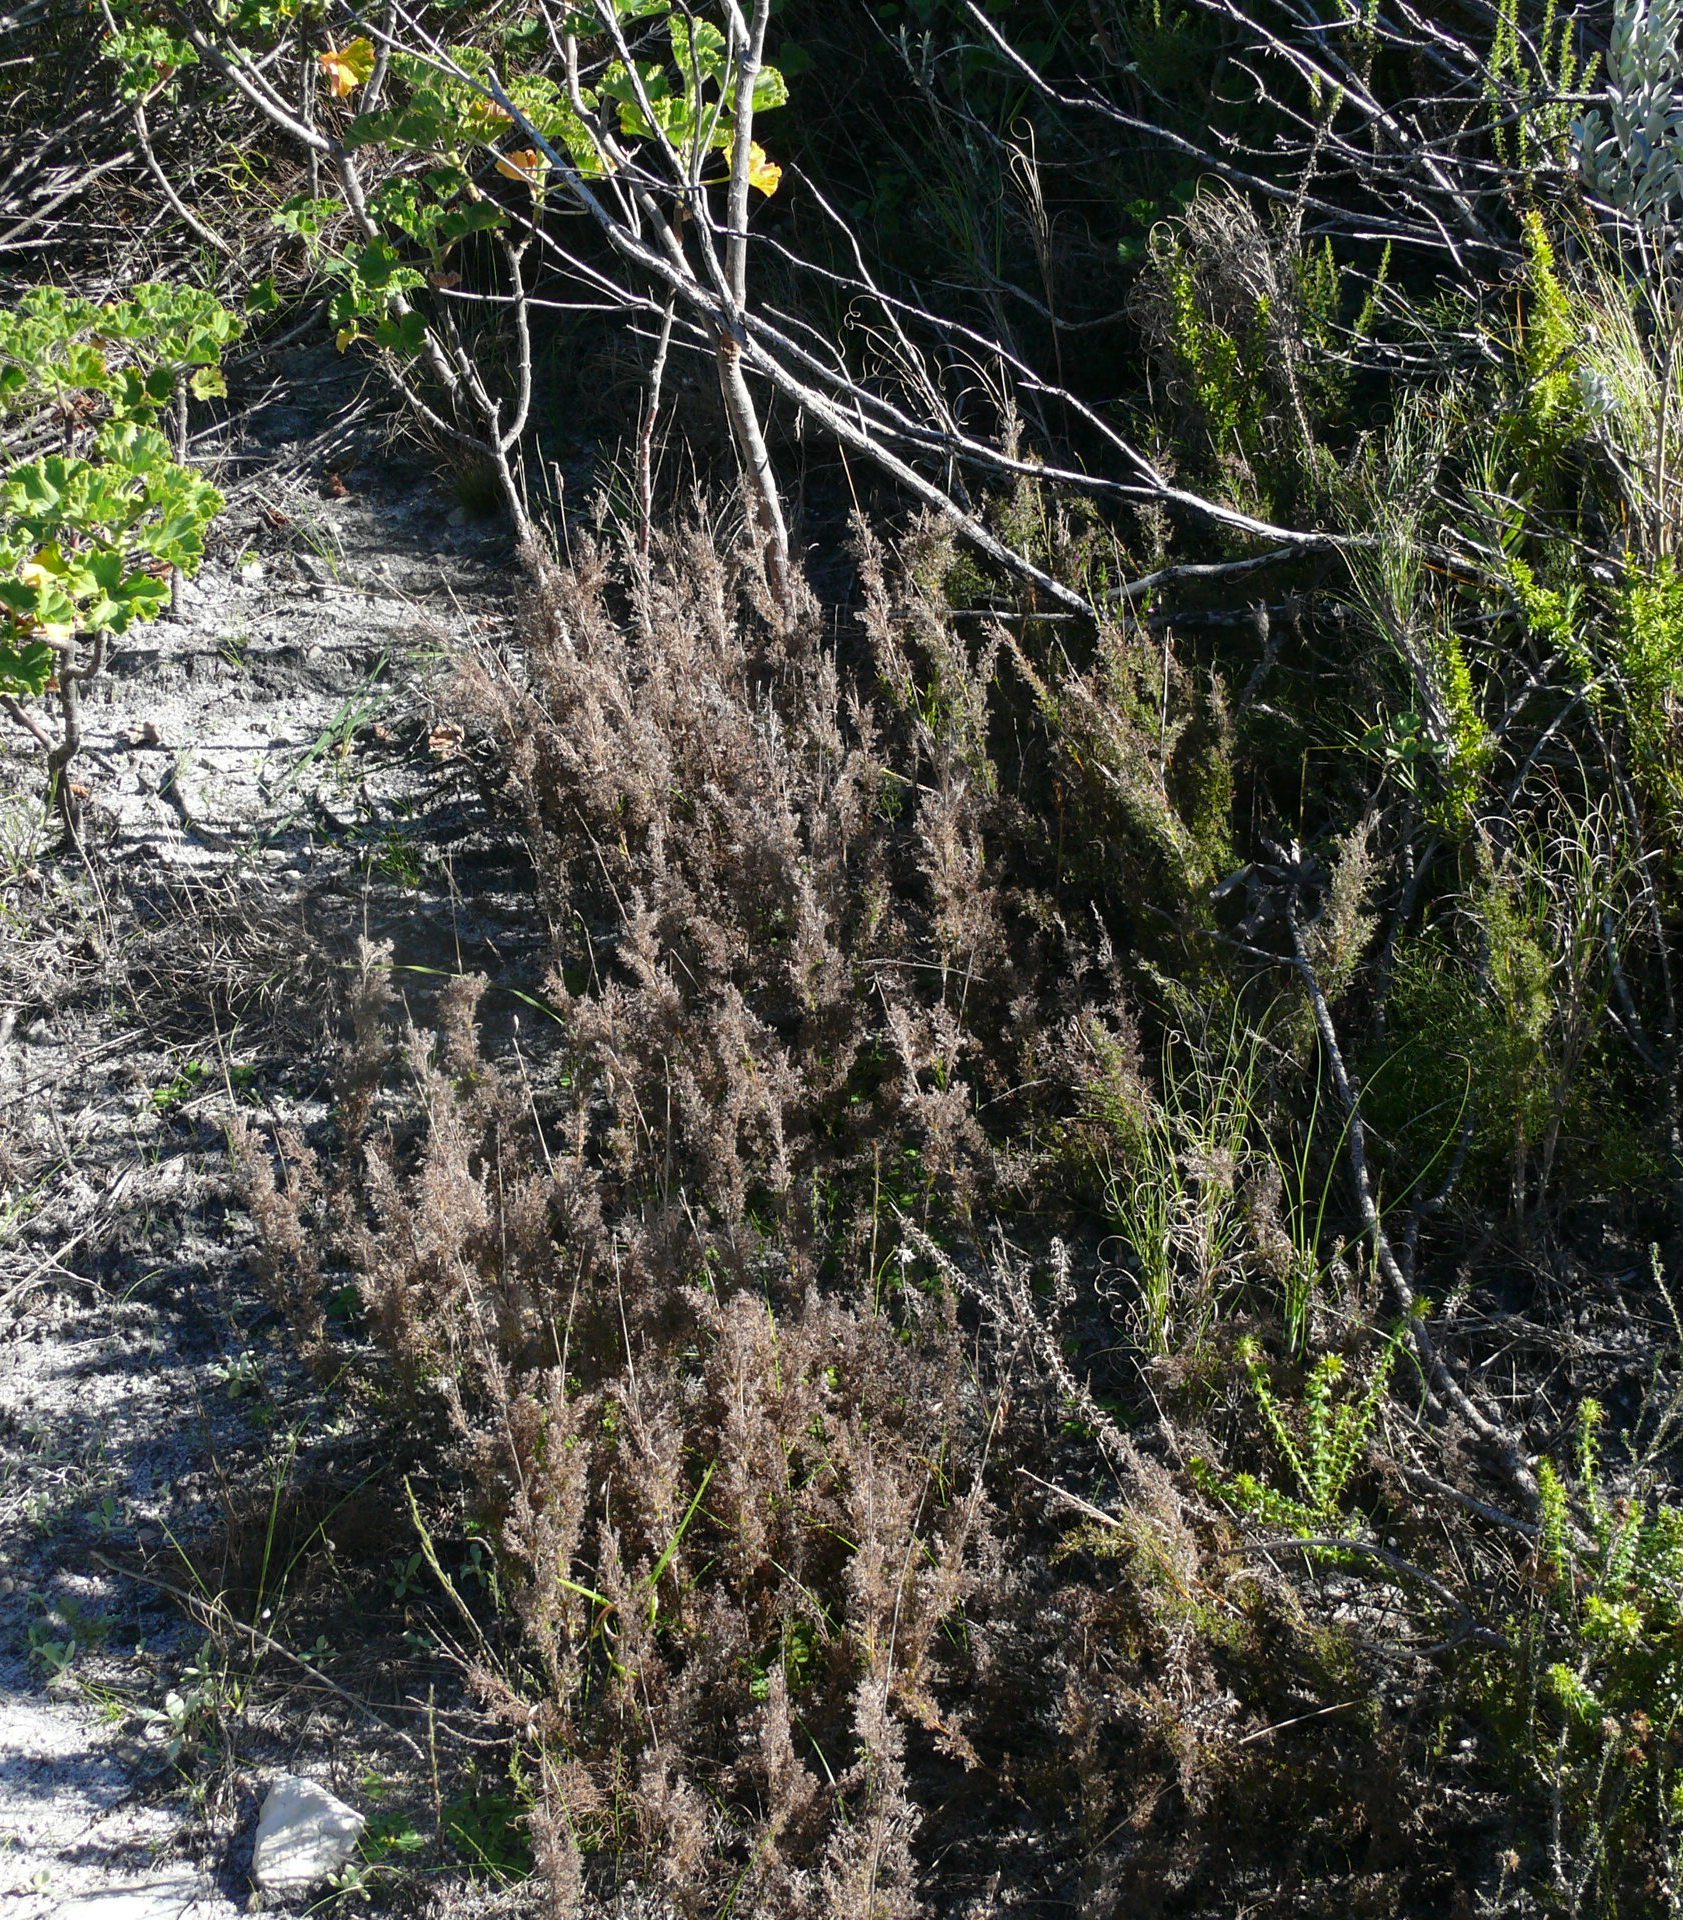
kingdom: Plantae
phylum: Tracheophyta
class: Liliopsida
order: Poales
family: Restionaceae
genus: Thamnochortus
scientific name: Thamnochortus fruticosus
